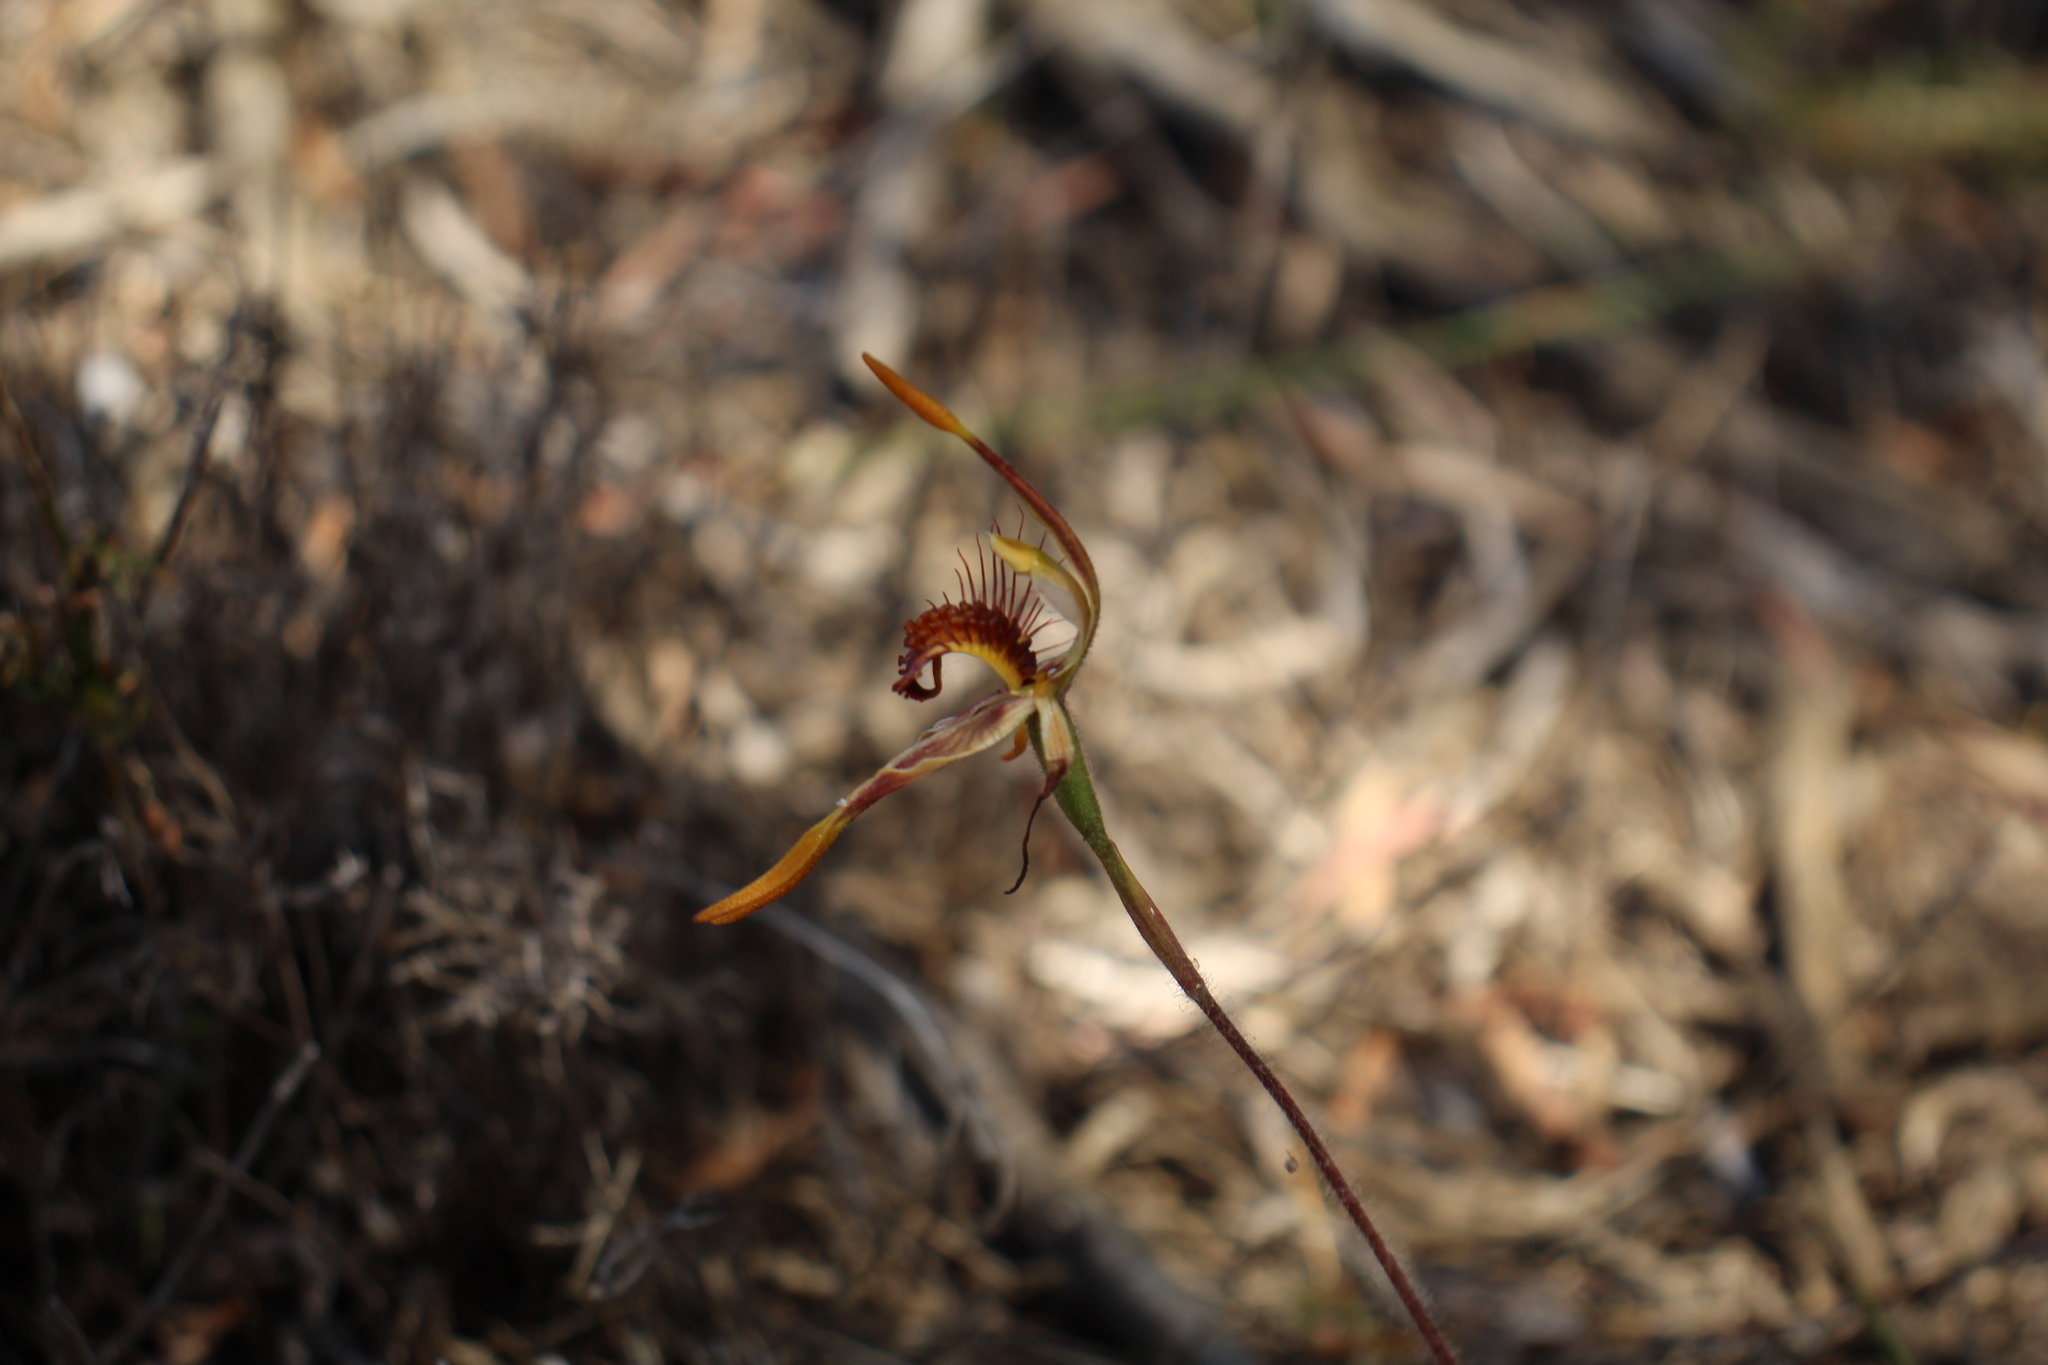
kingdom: Plantae
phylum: Tracheophyta
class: Liliopsida
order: Asparagales
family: Orchidaceae
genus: Caladenia
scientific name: Caladenia corynephora
